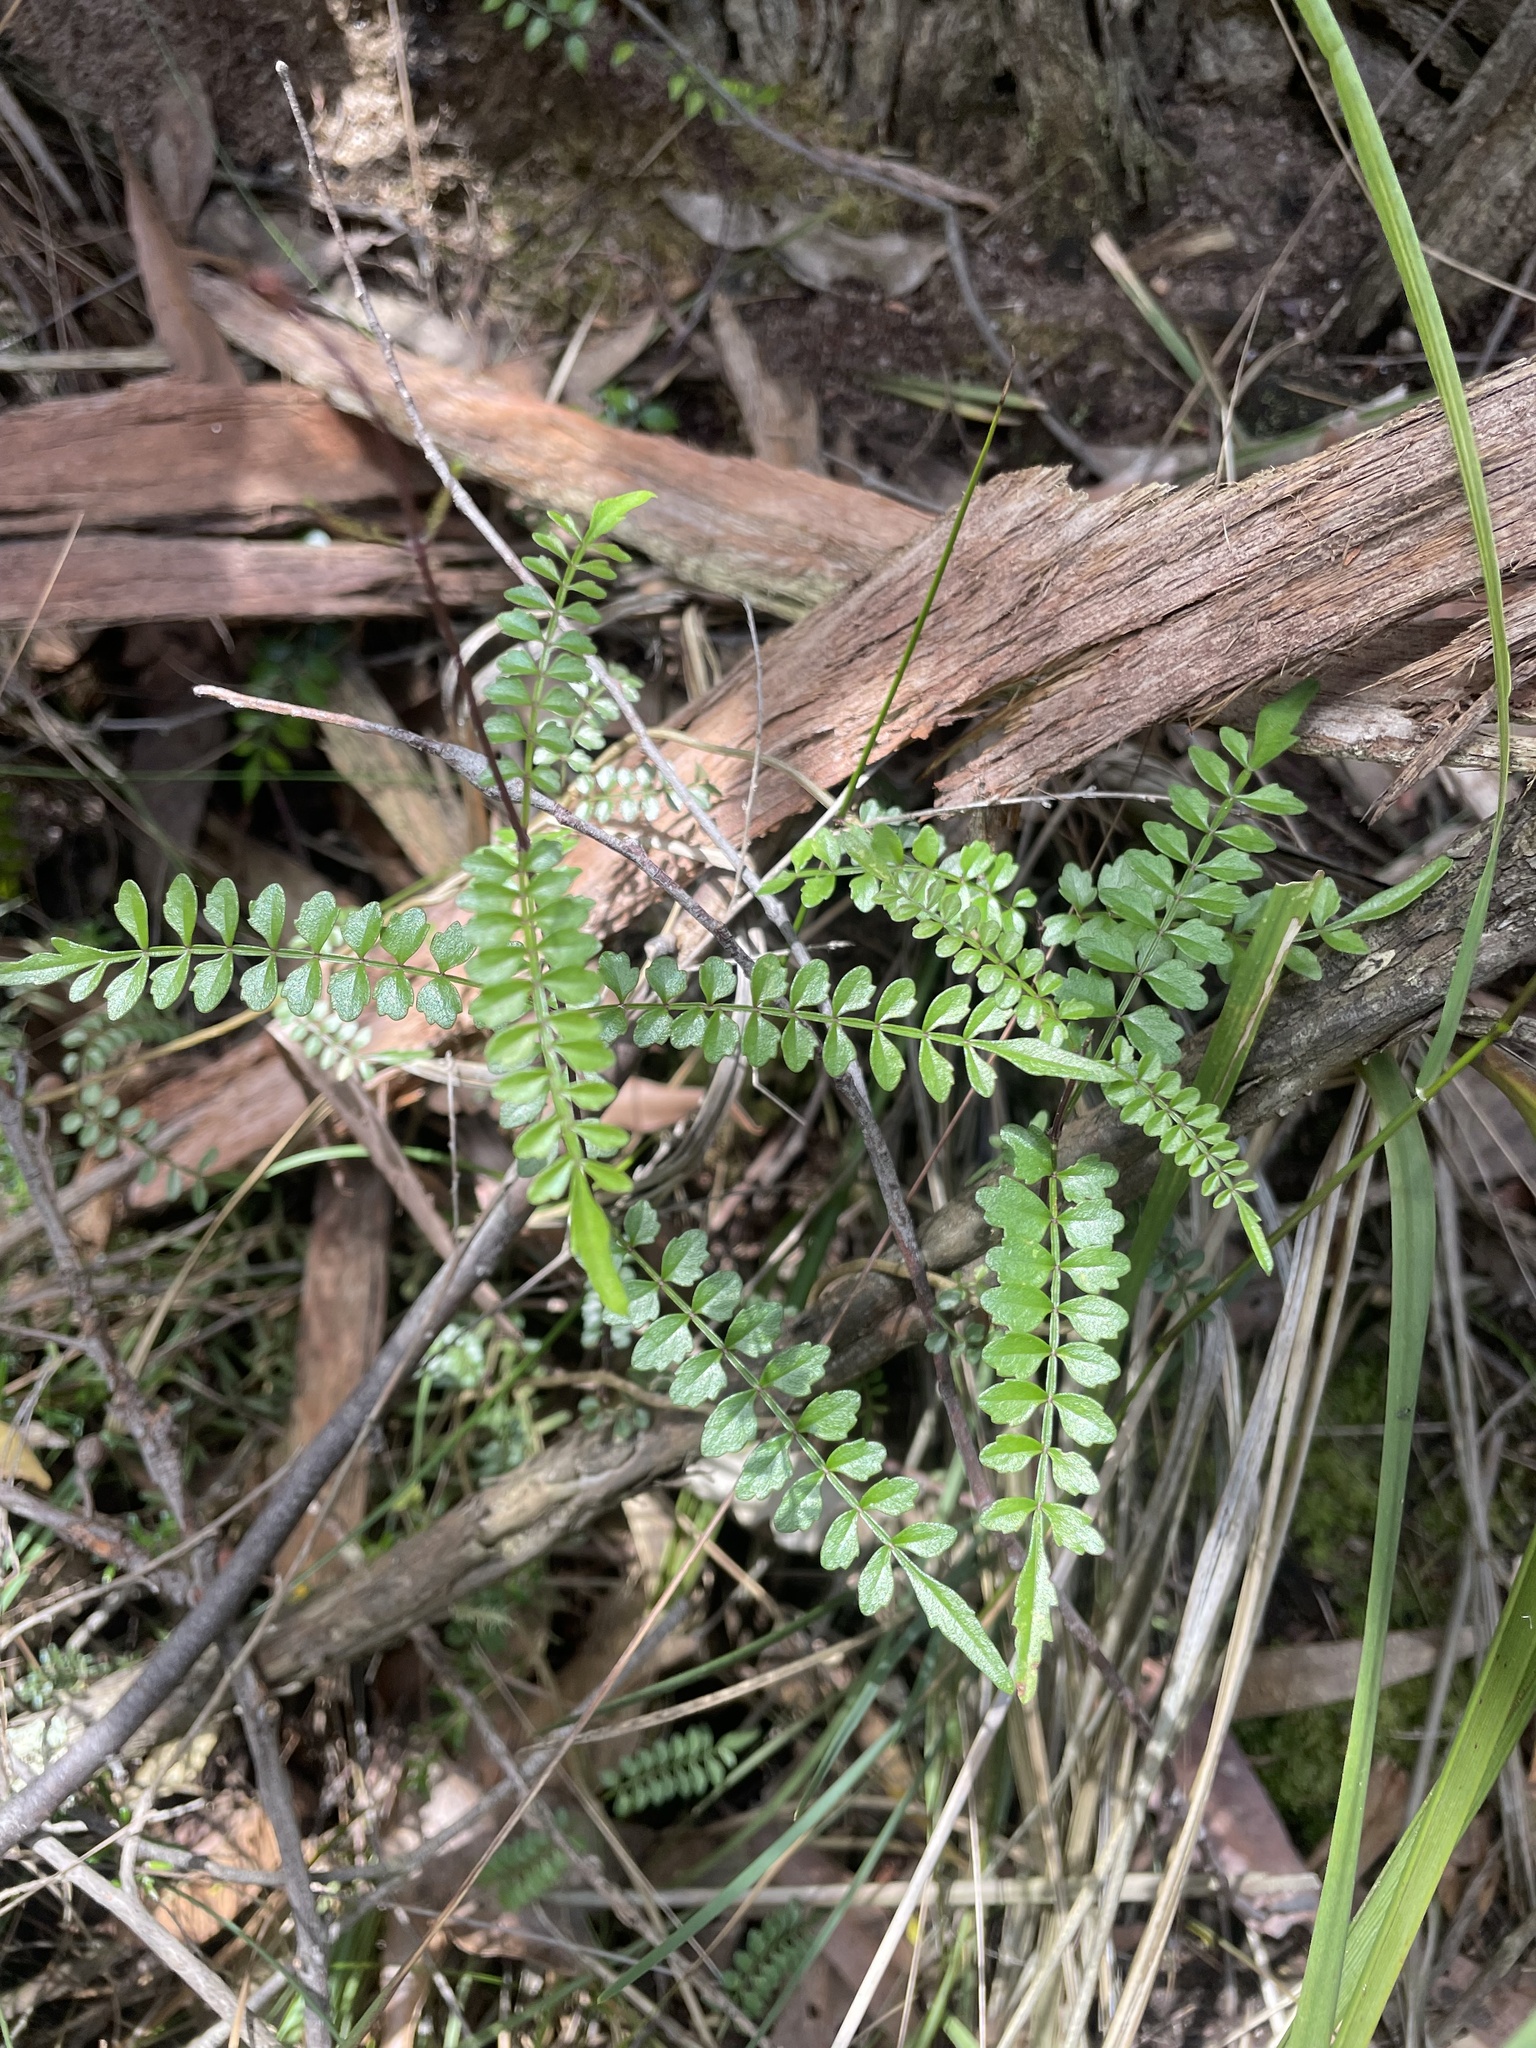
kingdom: Plantae
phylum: Tracheophyta
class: Magnoliopsida
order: Lamiales
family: Bignoniaceae
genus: Pandorea
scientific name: Pandorea pandorana
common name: Wonga-wonga-vine
